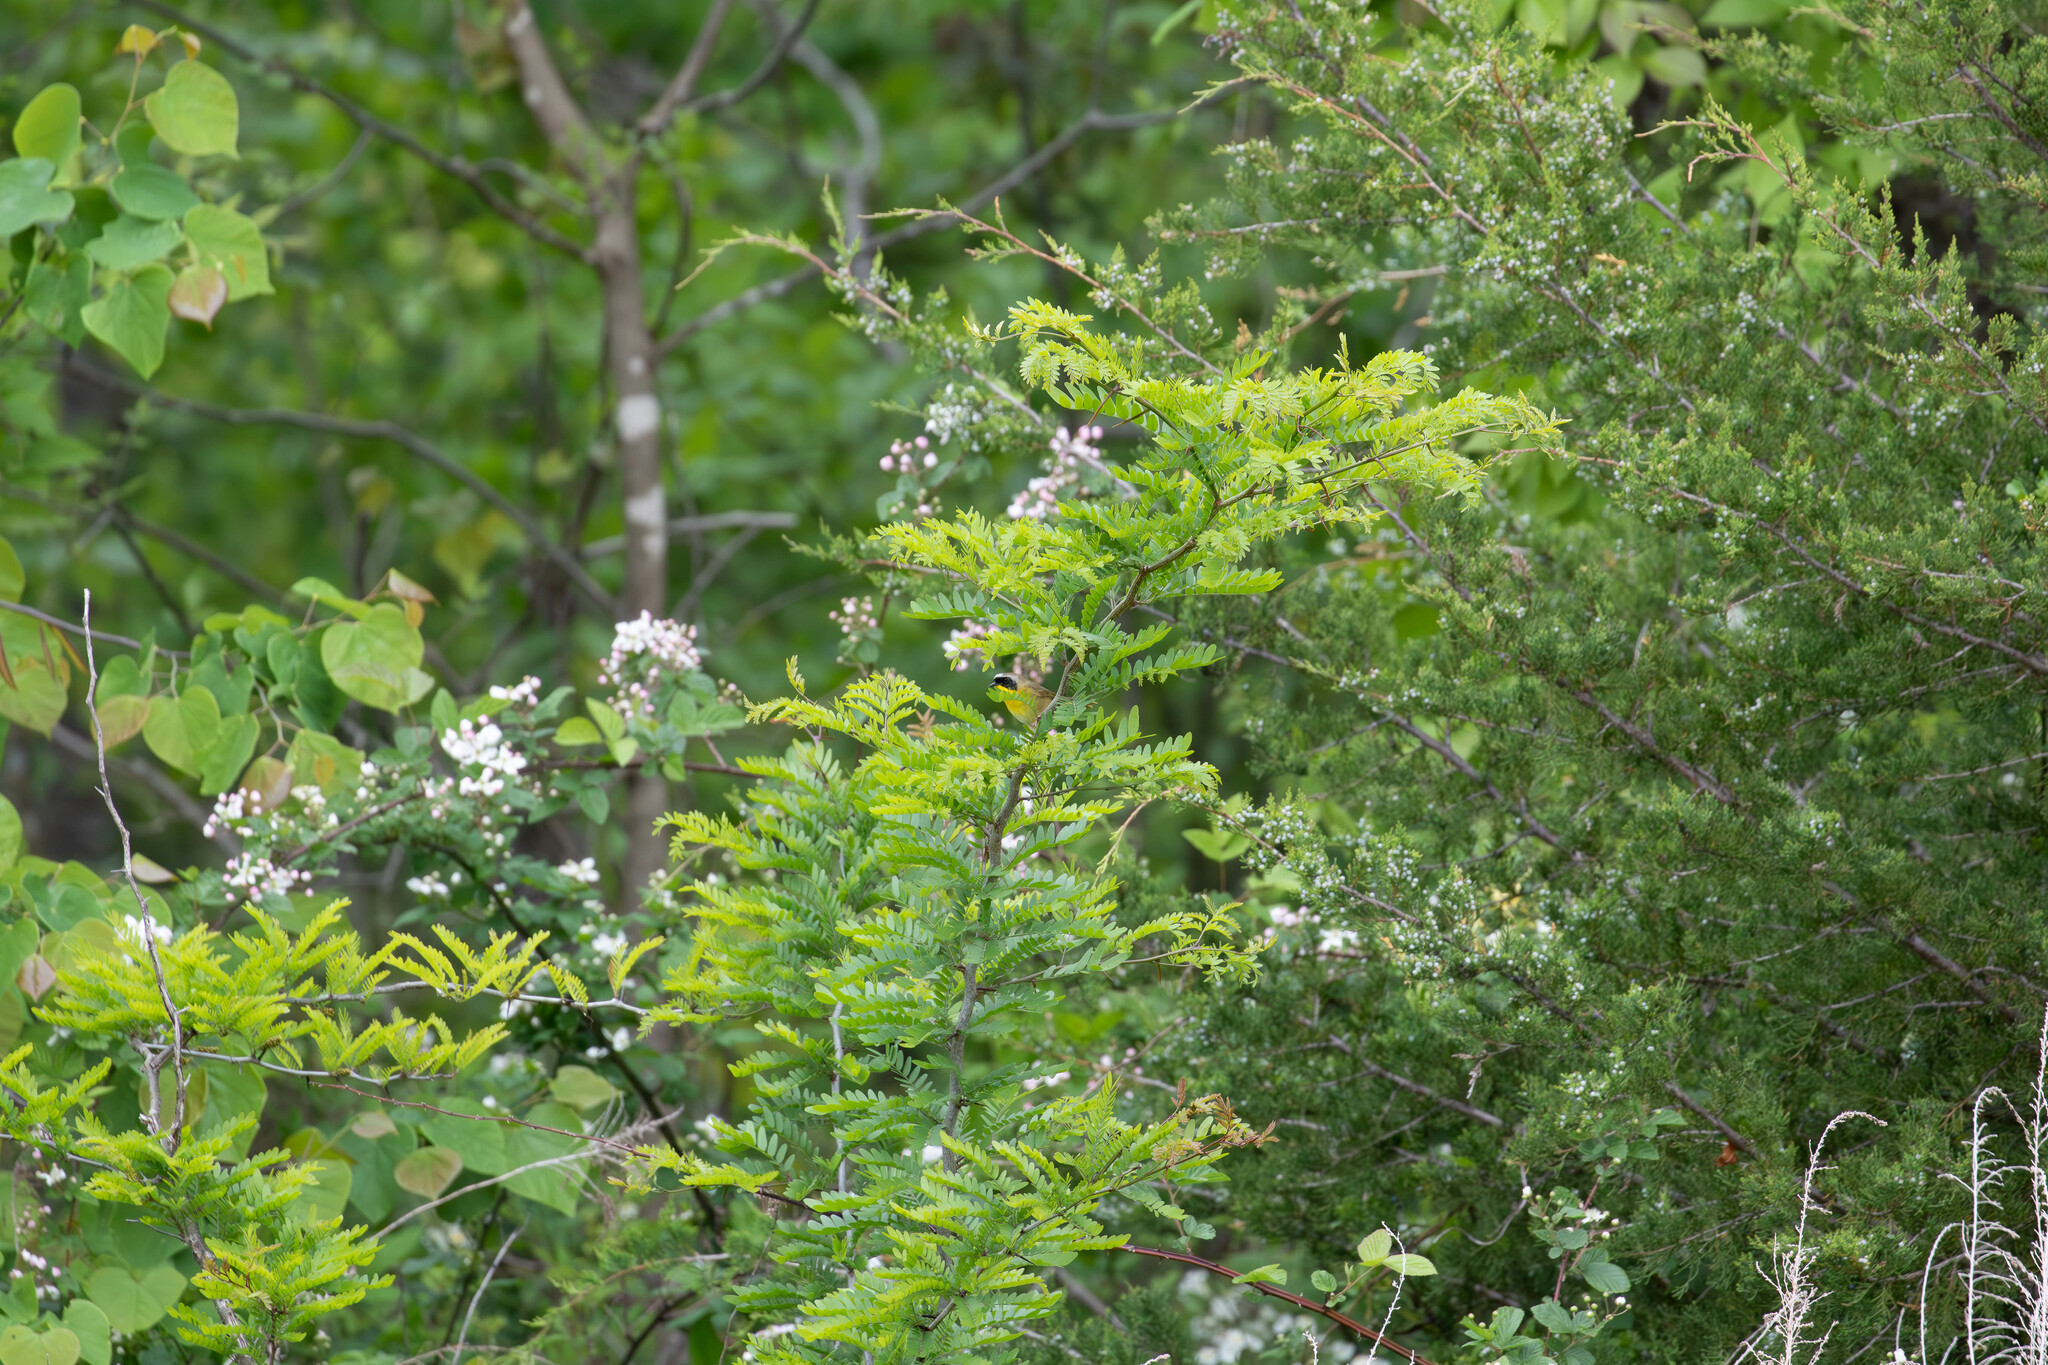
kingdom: Animalia
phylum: Chordata
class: Aves
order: Passeriformes
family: Parulidae
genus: Geothlypis
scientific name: Geothlypis trichas
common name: Common yellowthroat
